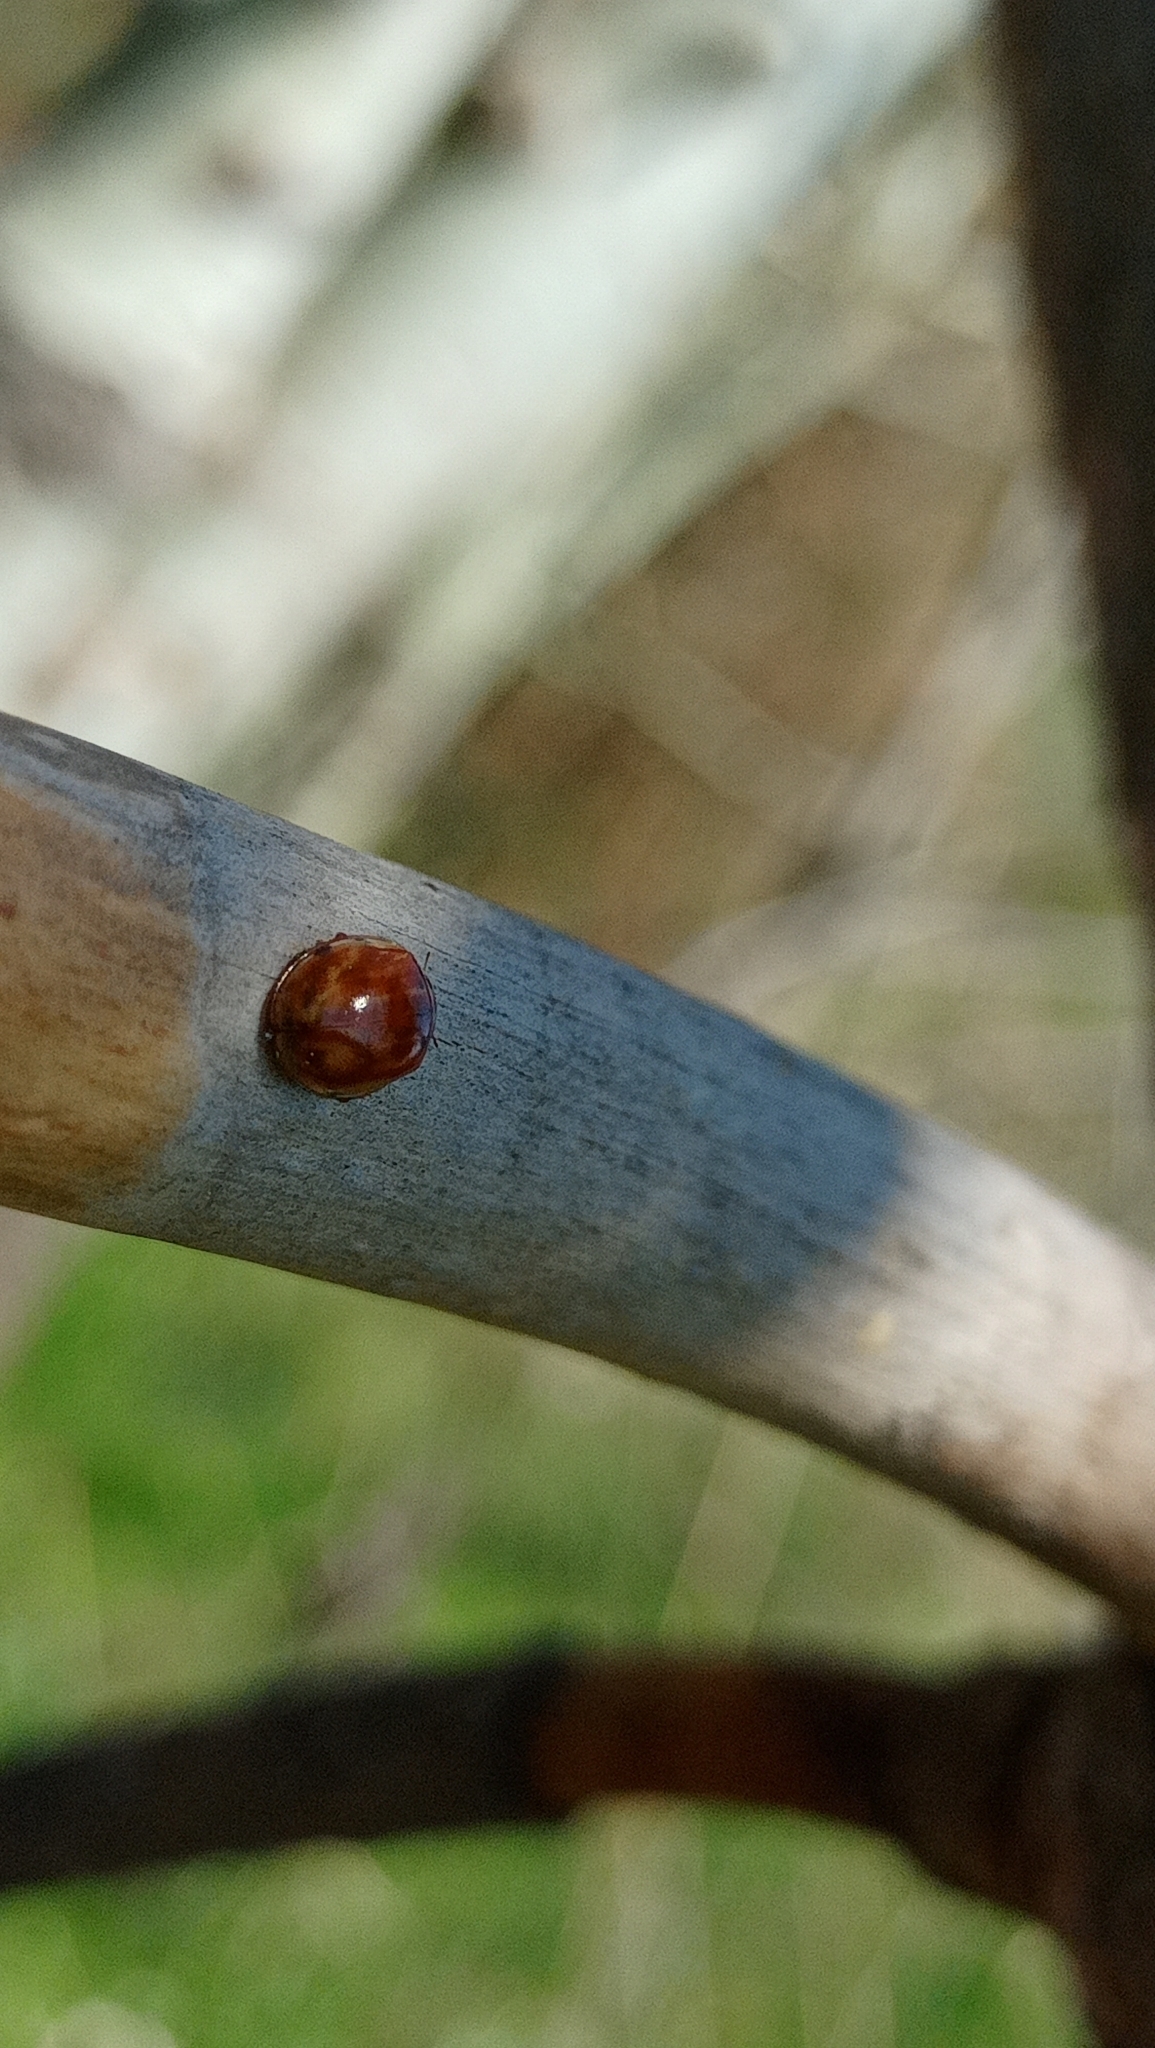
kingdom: Animalia
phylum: Arthropoda
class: Insecta
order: Coleoptera
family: Coccinellidae
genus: Harmonia
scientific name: Harmonia quadripunctata
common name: Cream-streaked ladybird
